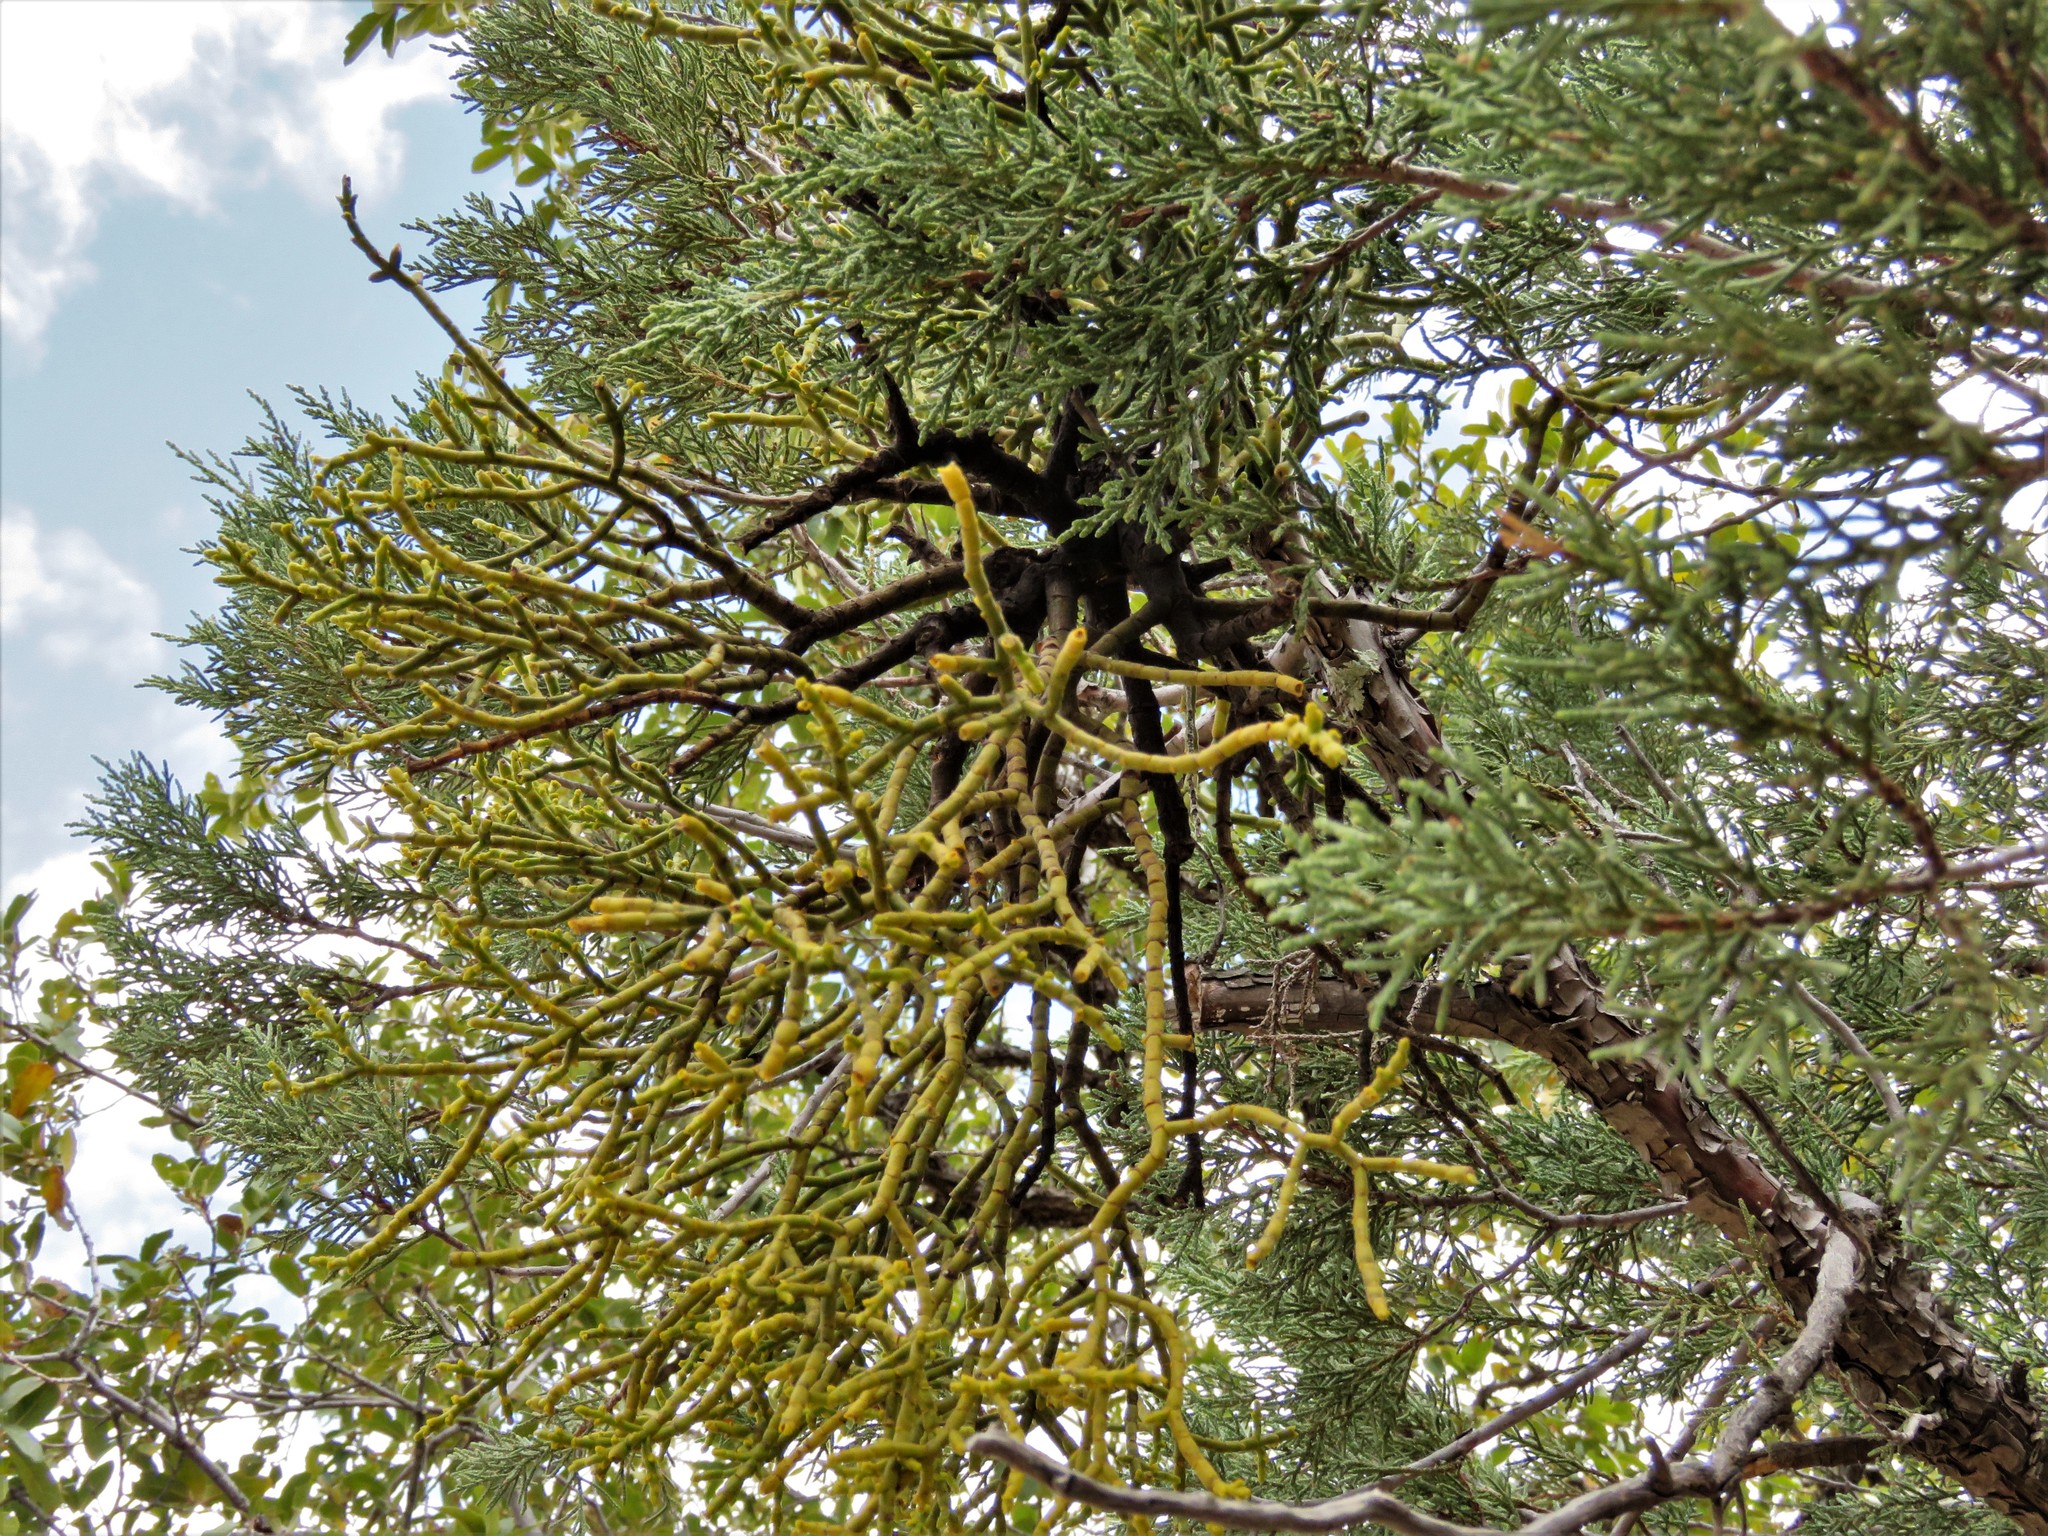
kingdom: Plantae
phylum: Tracheophyta
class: Magnoliopsida
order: Santalales
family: Viscaceae
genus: Phoradendron
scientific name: Phoradendron juniperinum
